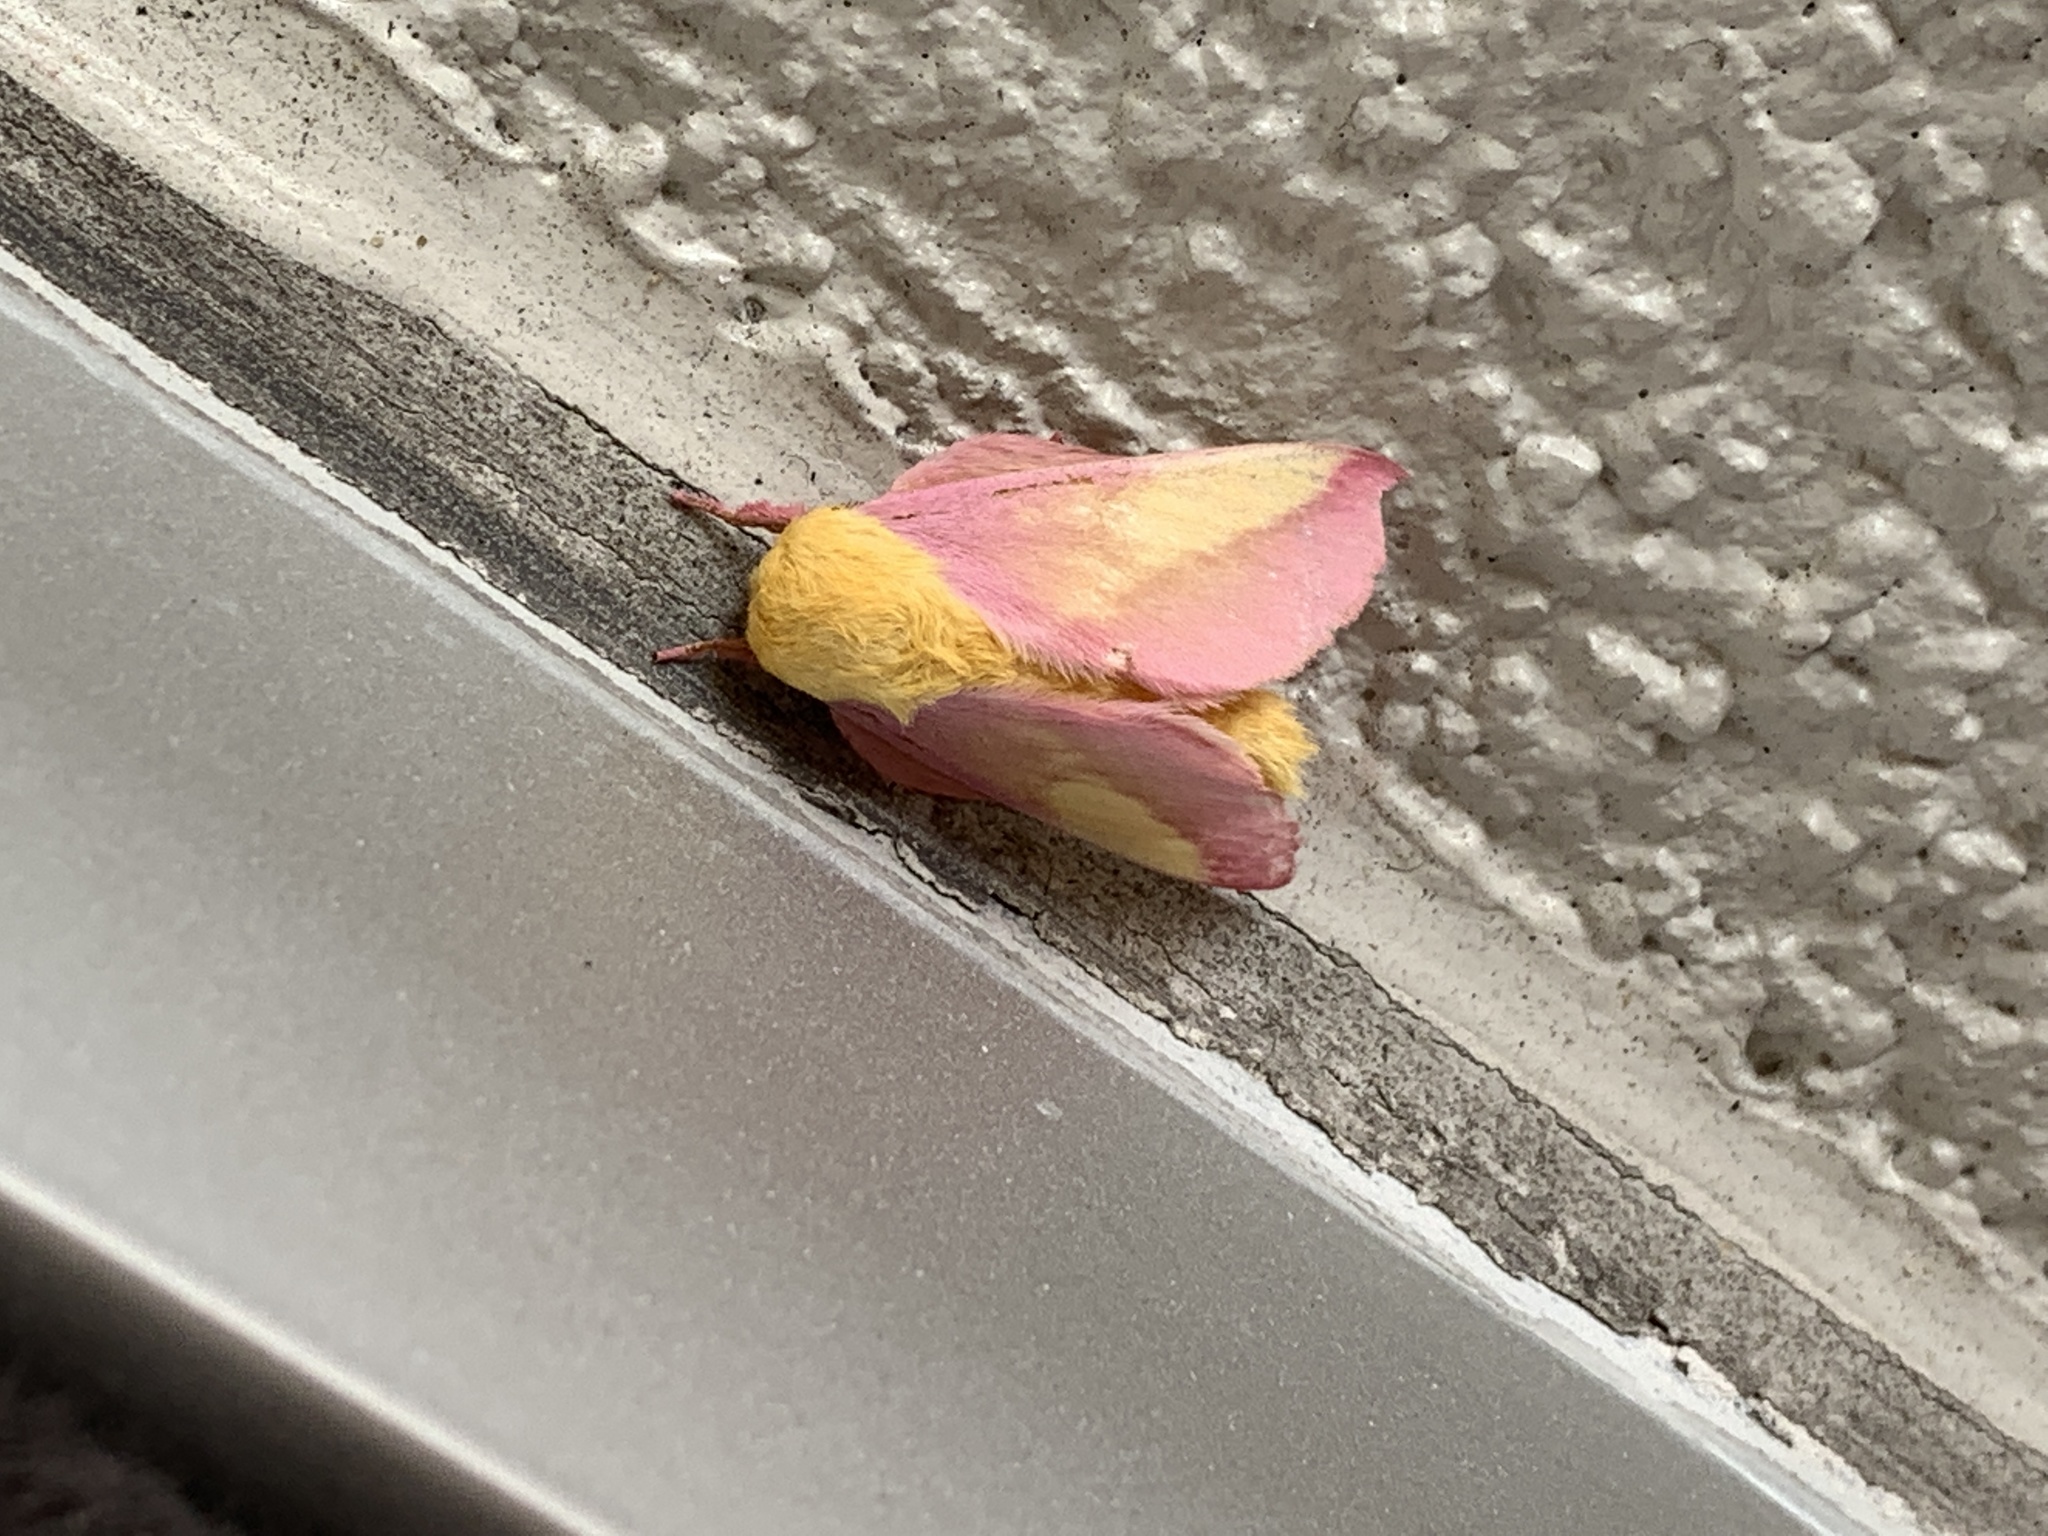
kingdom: Animalia
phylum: Arthropoda
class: Insecta
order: Lepidoptera
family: Saturniidae
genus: Dryocampa
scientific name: Dryocampa rubicunda
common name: Rosy maple moth
